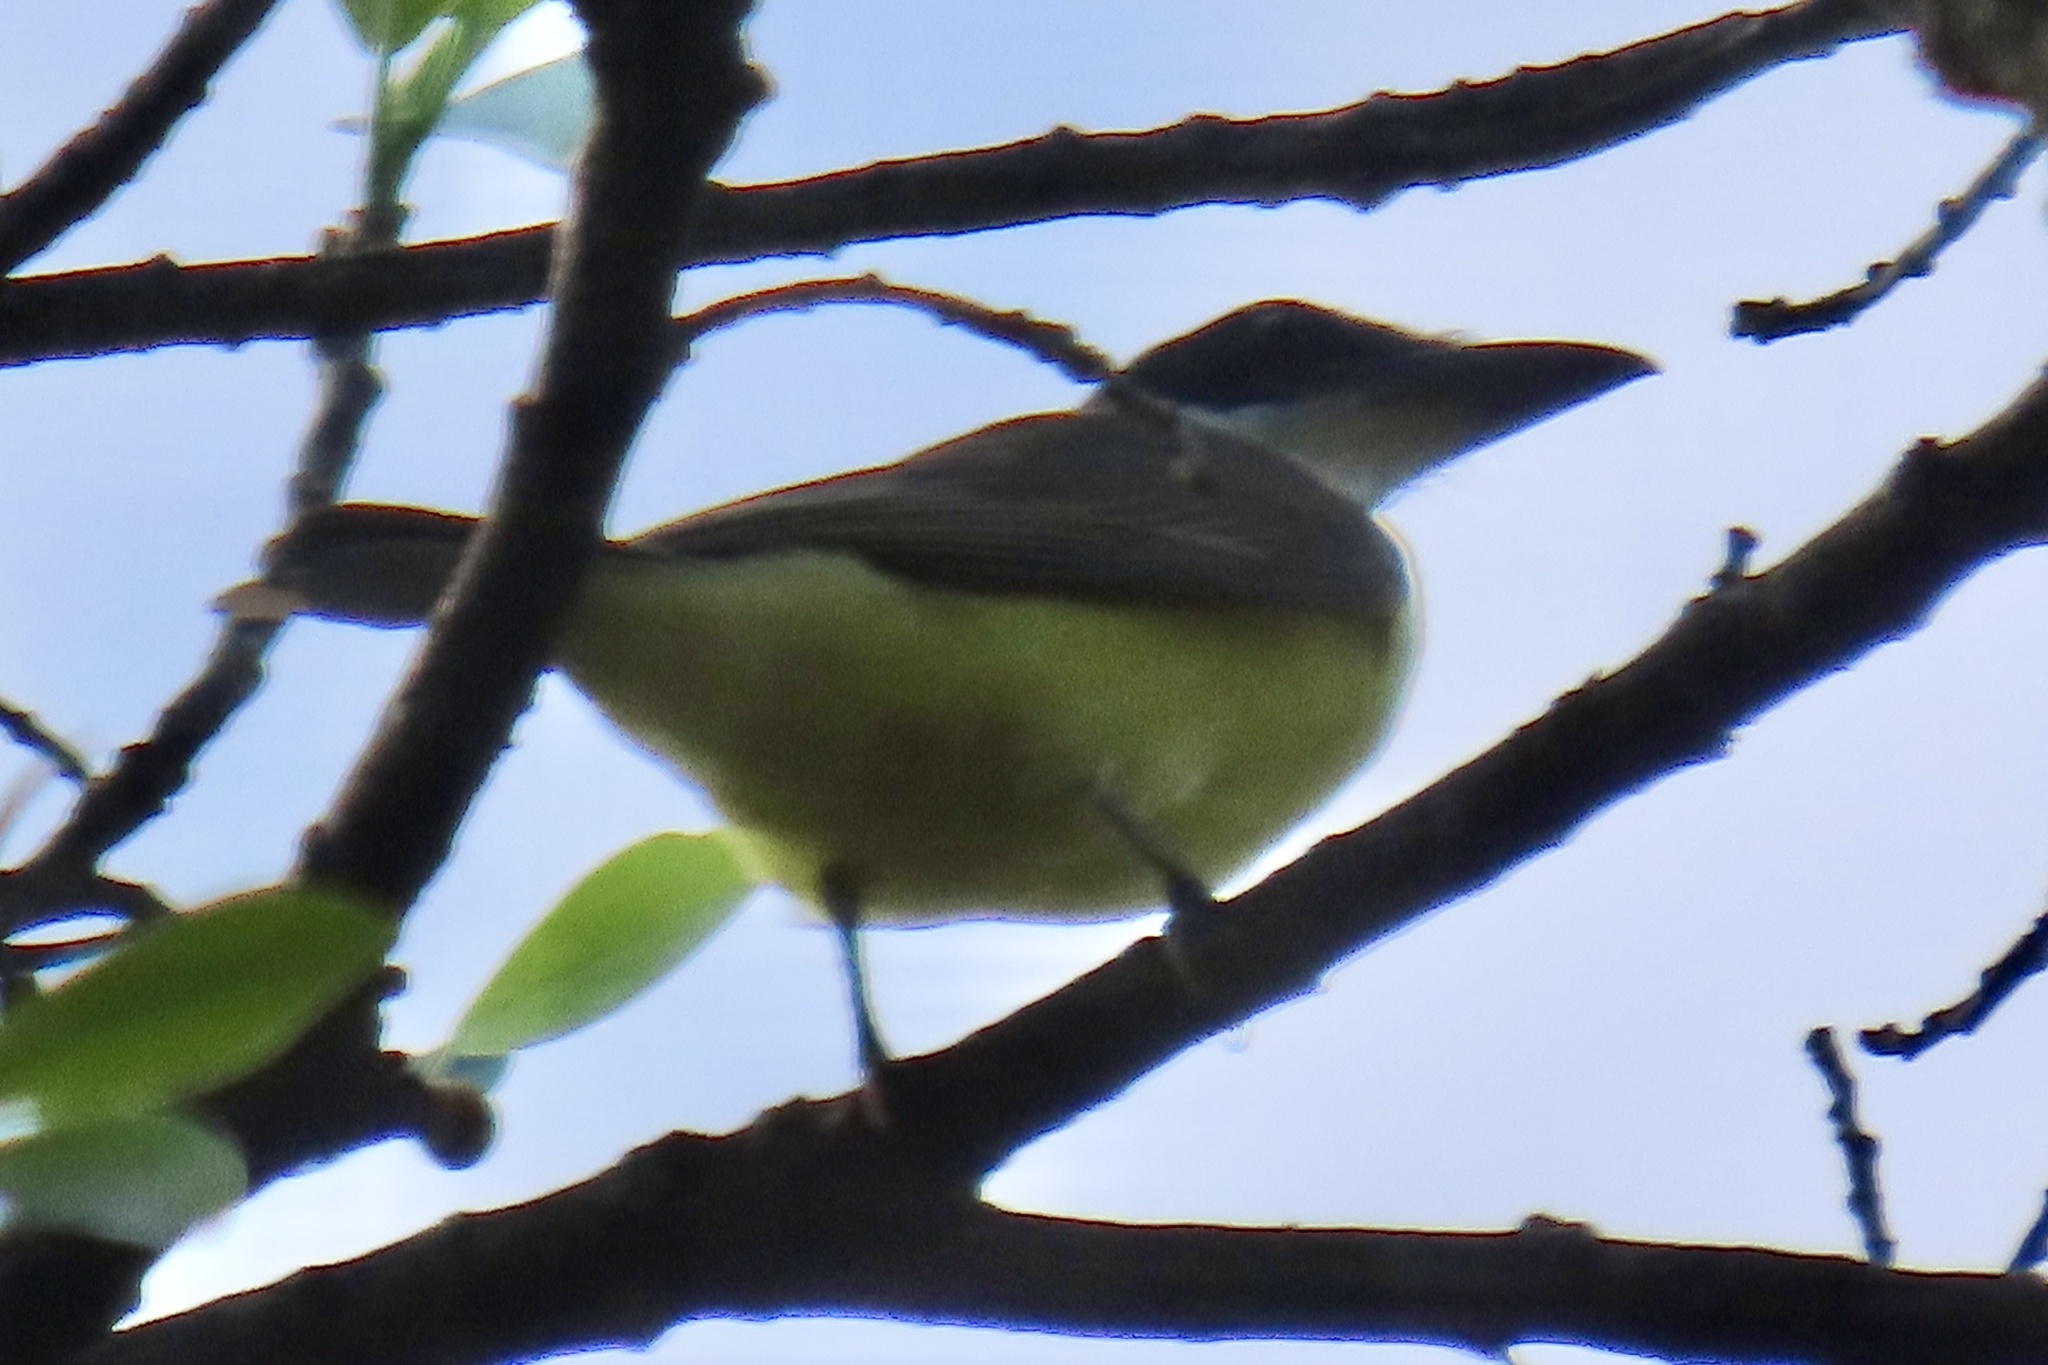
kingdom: Animalia
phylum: Chordata
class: Aves
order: Passeriformes
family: Tyrannidae
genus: Megarynchus
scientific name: Megarynchus pitangua
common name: Boat-billed flycatcher
